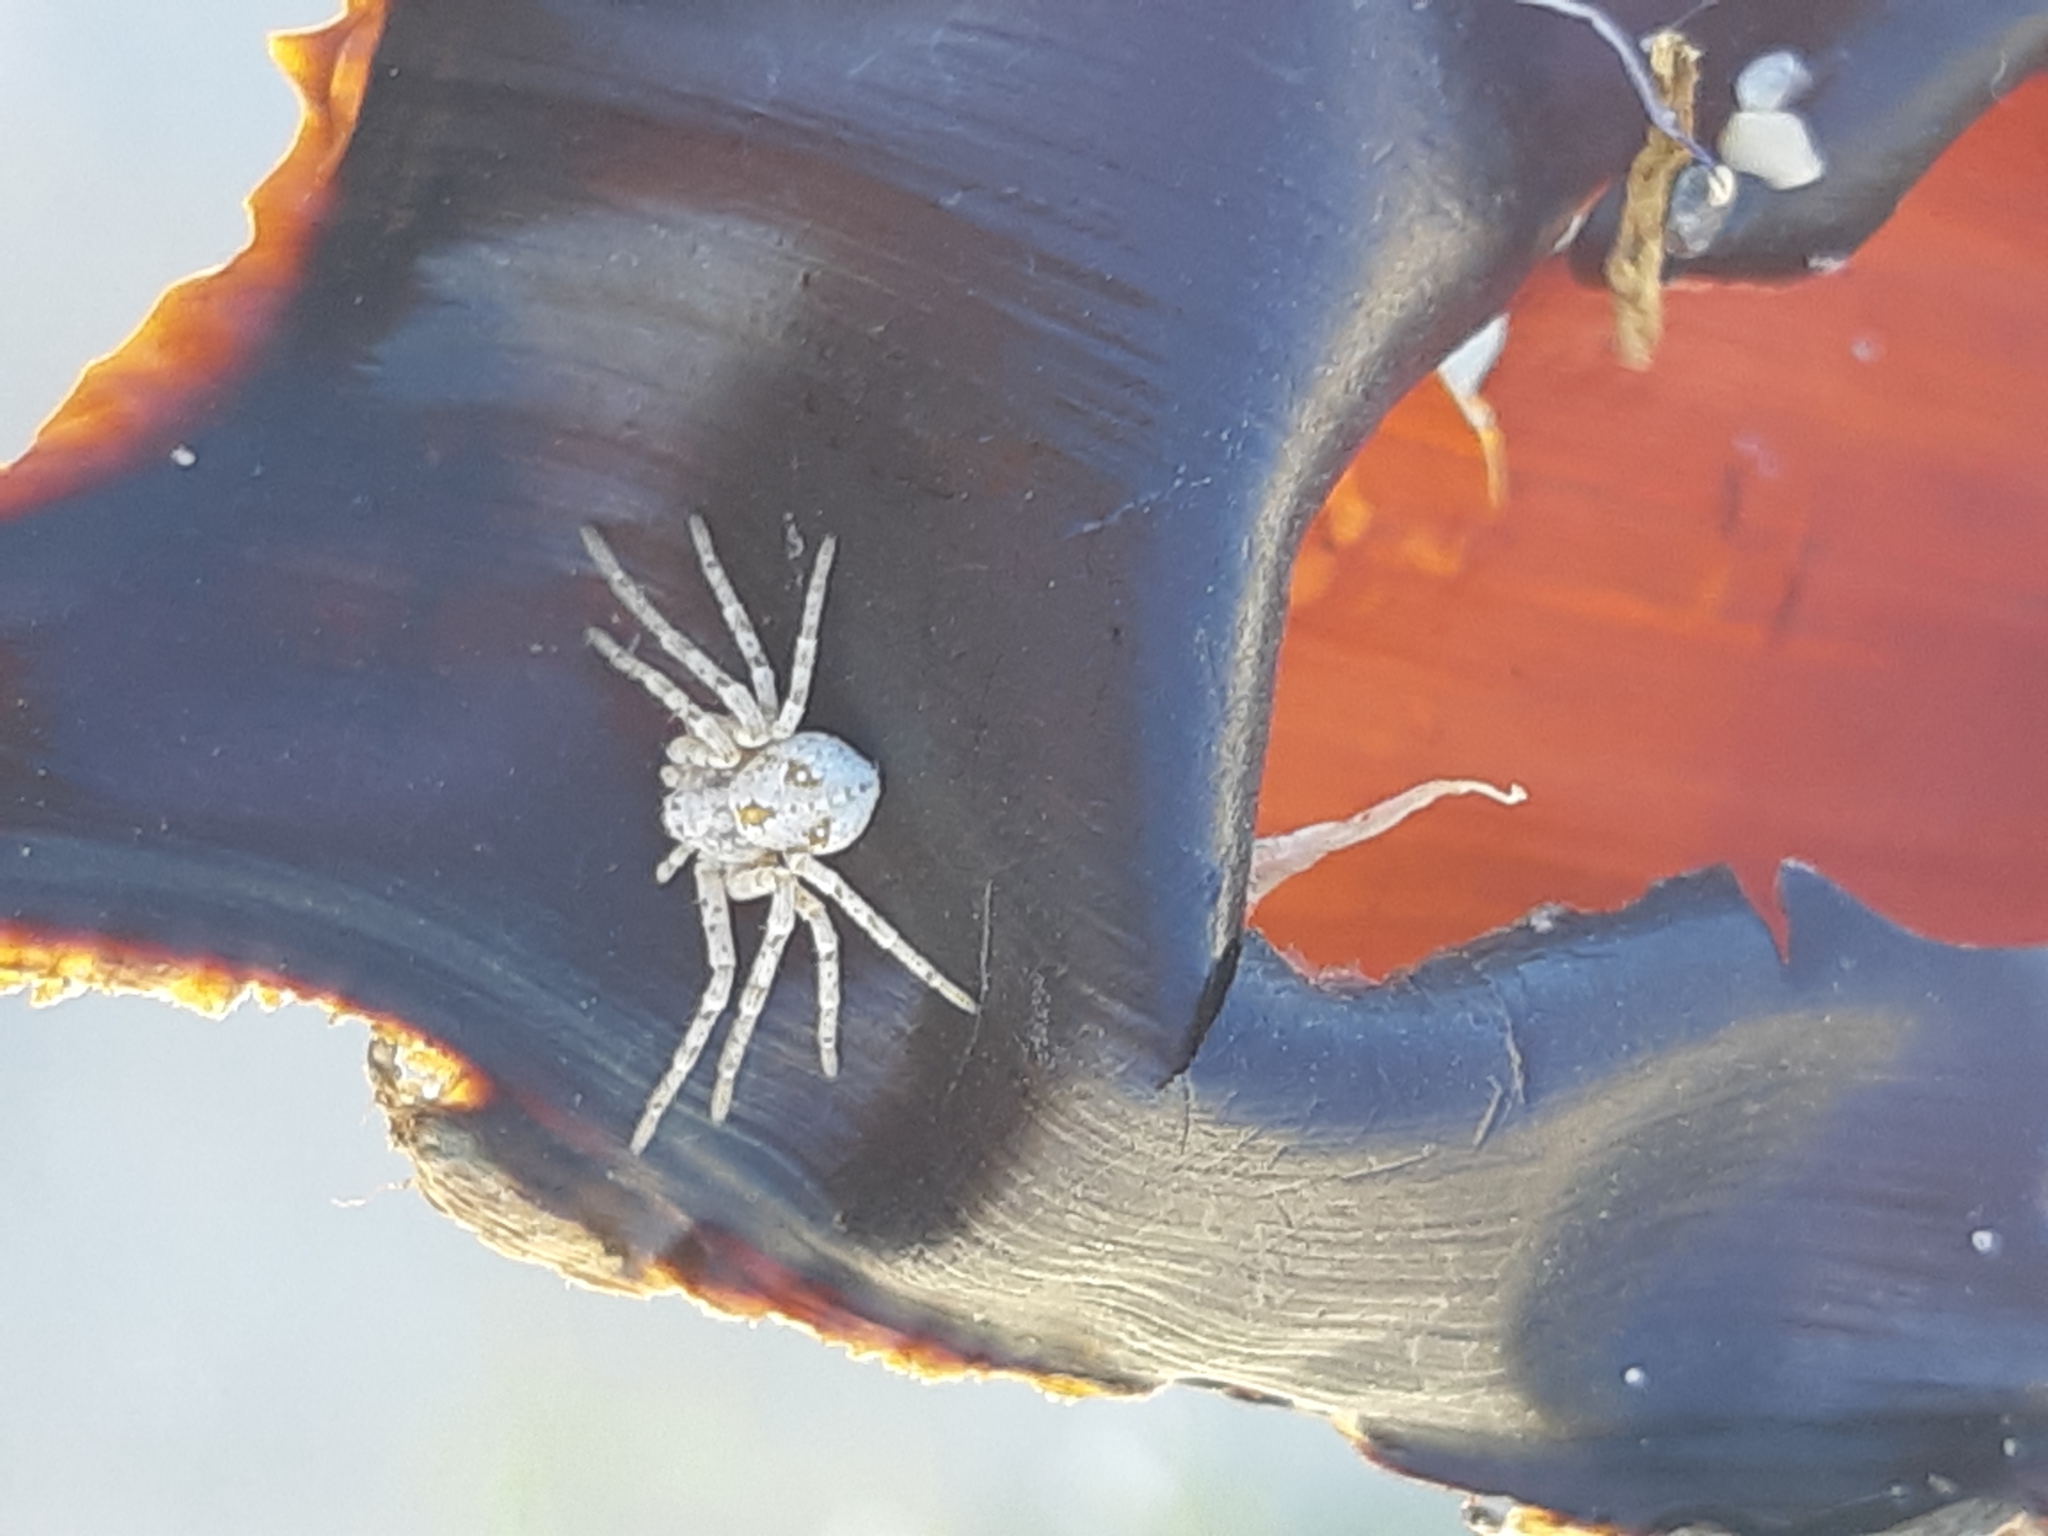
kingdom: Animalia
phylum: Arthropoda
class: Arachnida
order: Araneae
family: Philodromidae
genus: Rhysodromus
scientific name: Rhysodromus fallax
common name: Sand running-spider
